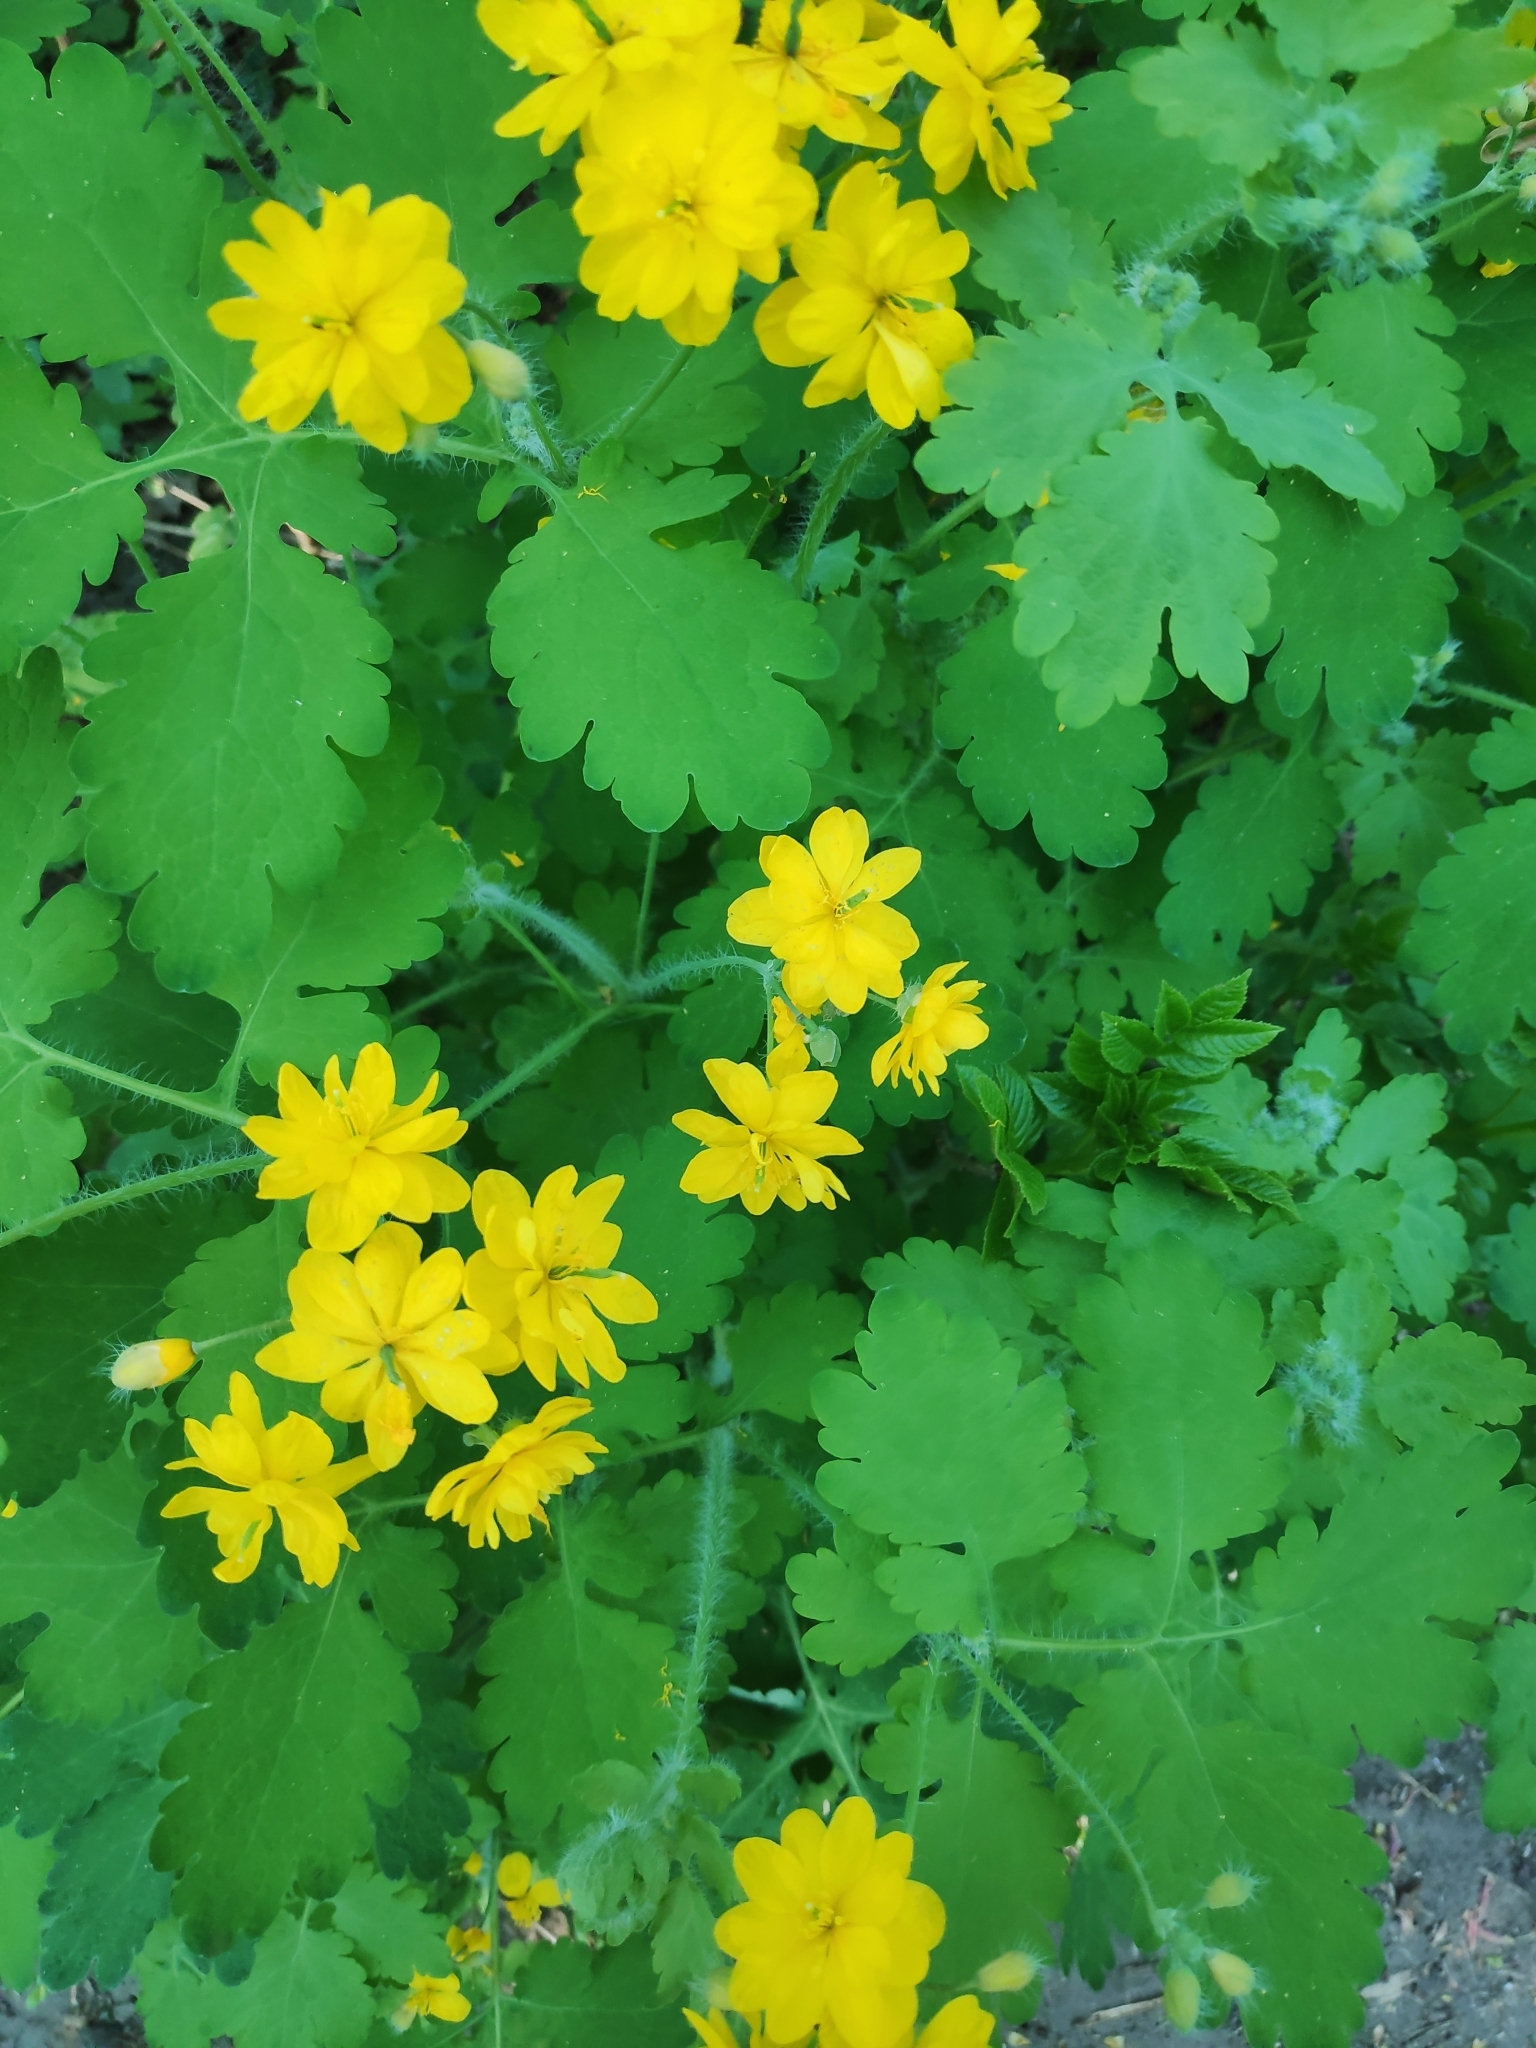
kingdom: Plantae
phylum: Tracheophyta
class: Magnoliopsida
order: Ranunculales
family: Papaveraceae
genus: Chelidonium
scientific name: Chelidonium majus
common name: Greater celandine
